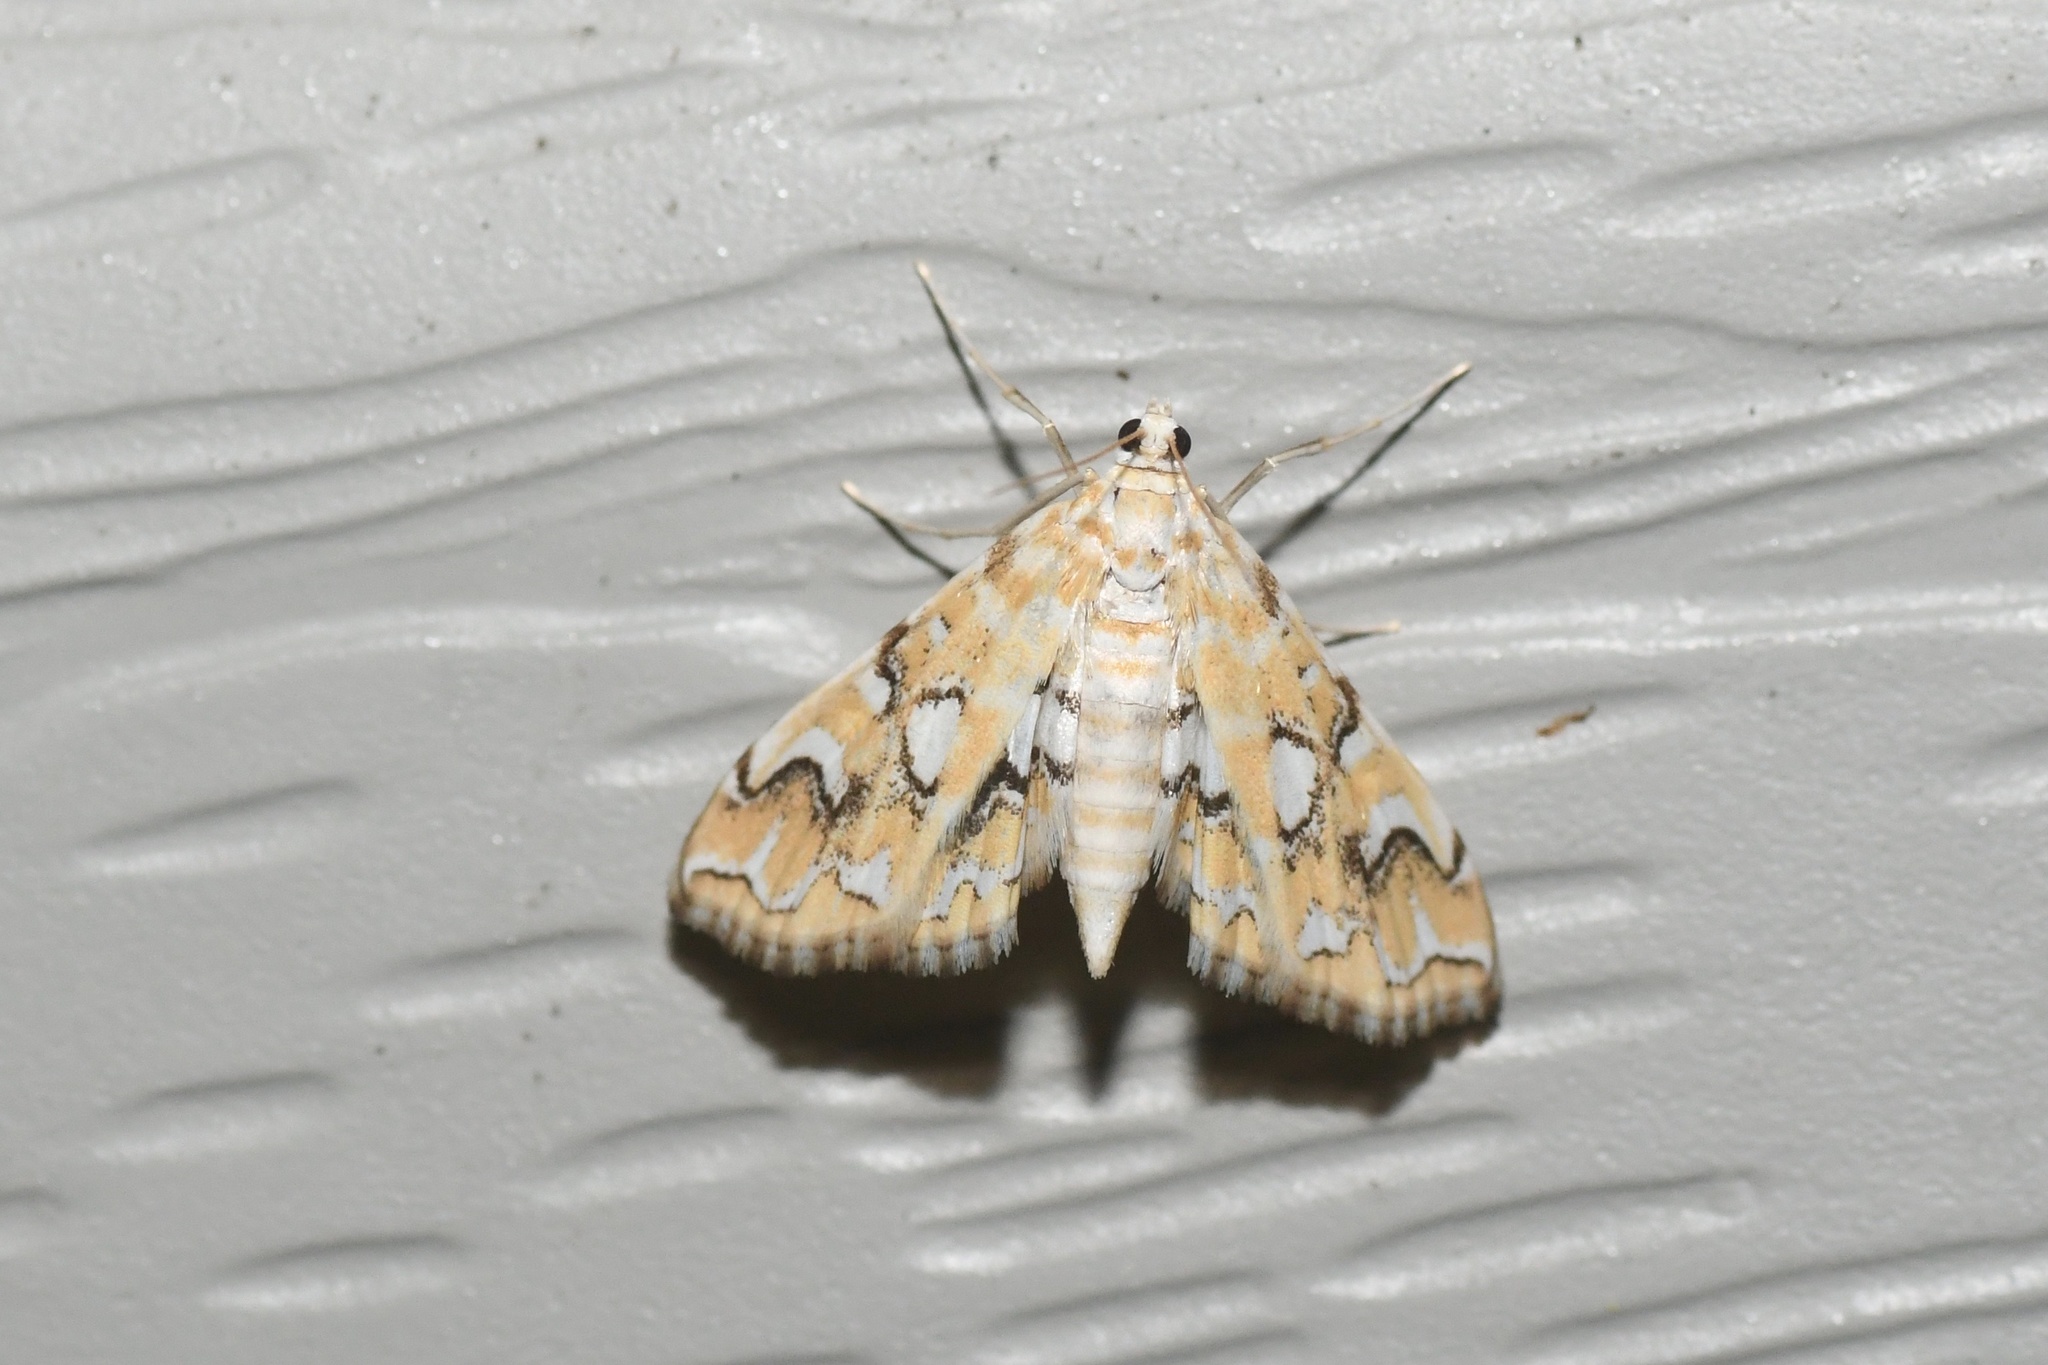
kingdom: Animalia
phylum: Arthropoda
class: Insecta
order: Lepidoptera
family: Crambidae
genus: Elophila
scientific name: Elophila icciusalis
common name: Pondside pyralid moth
